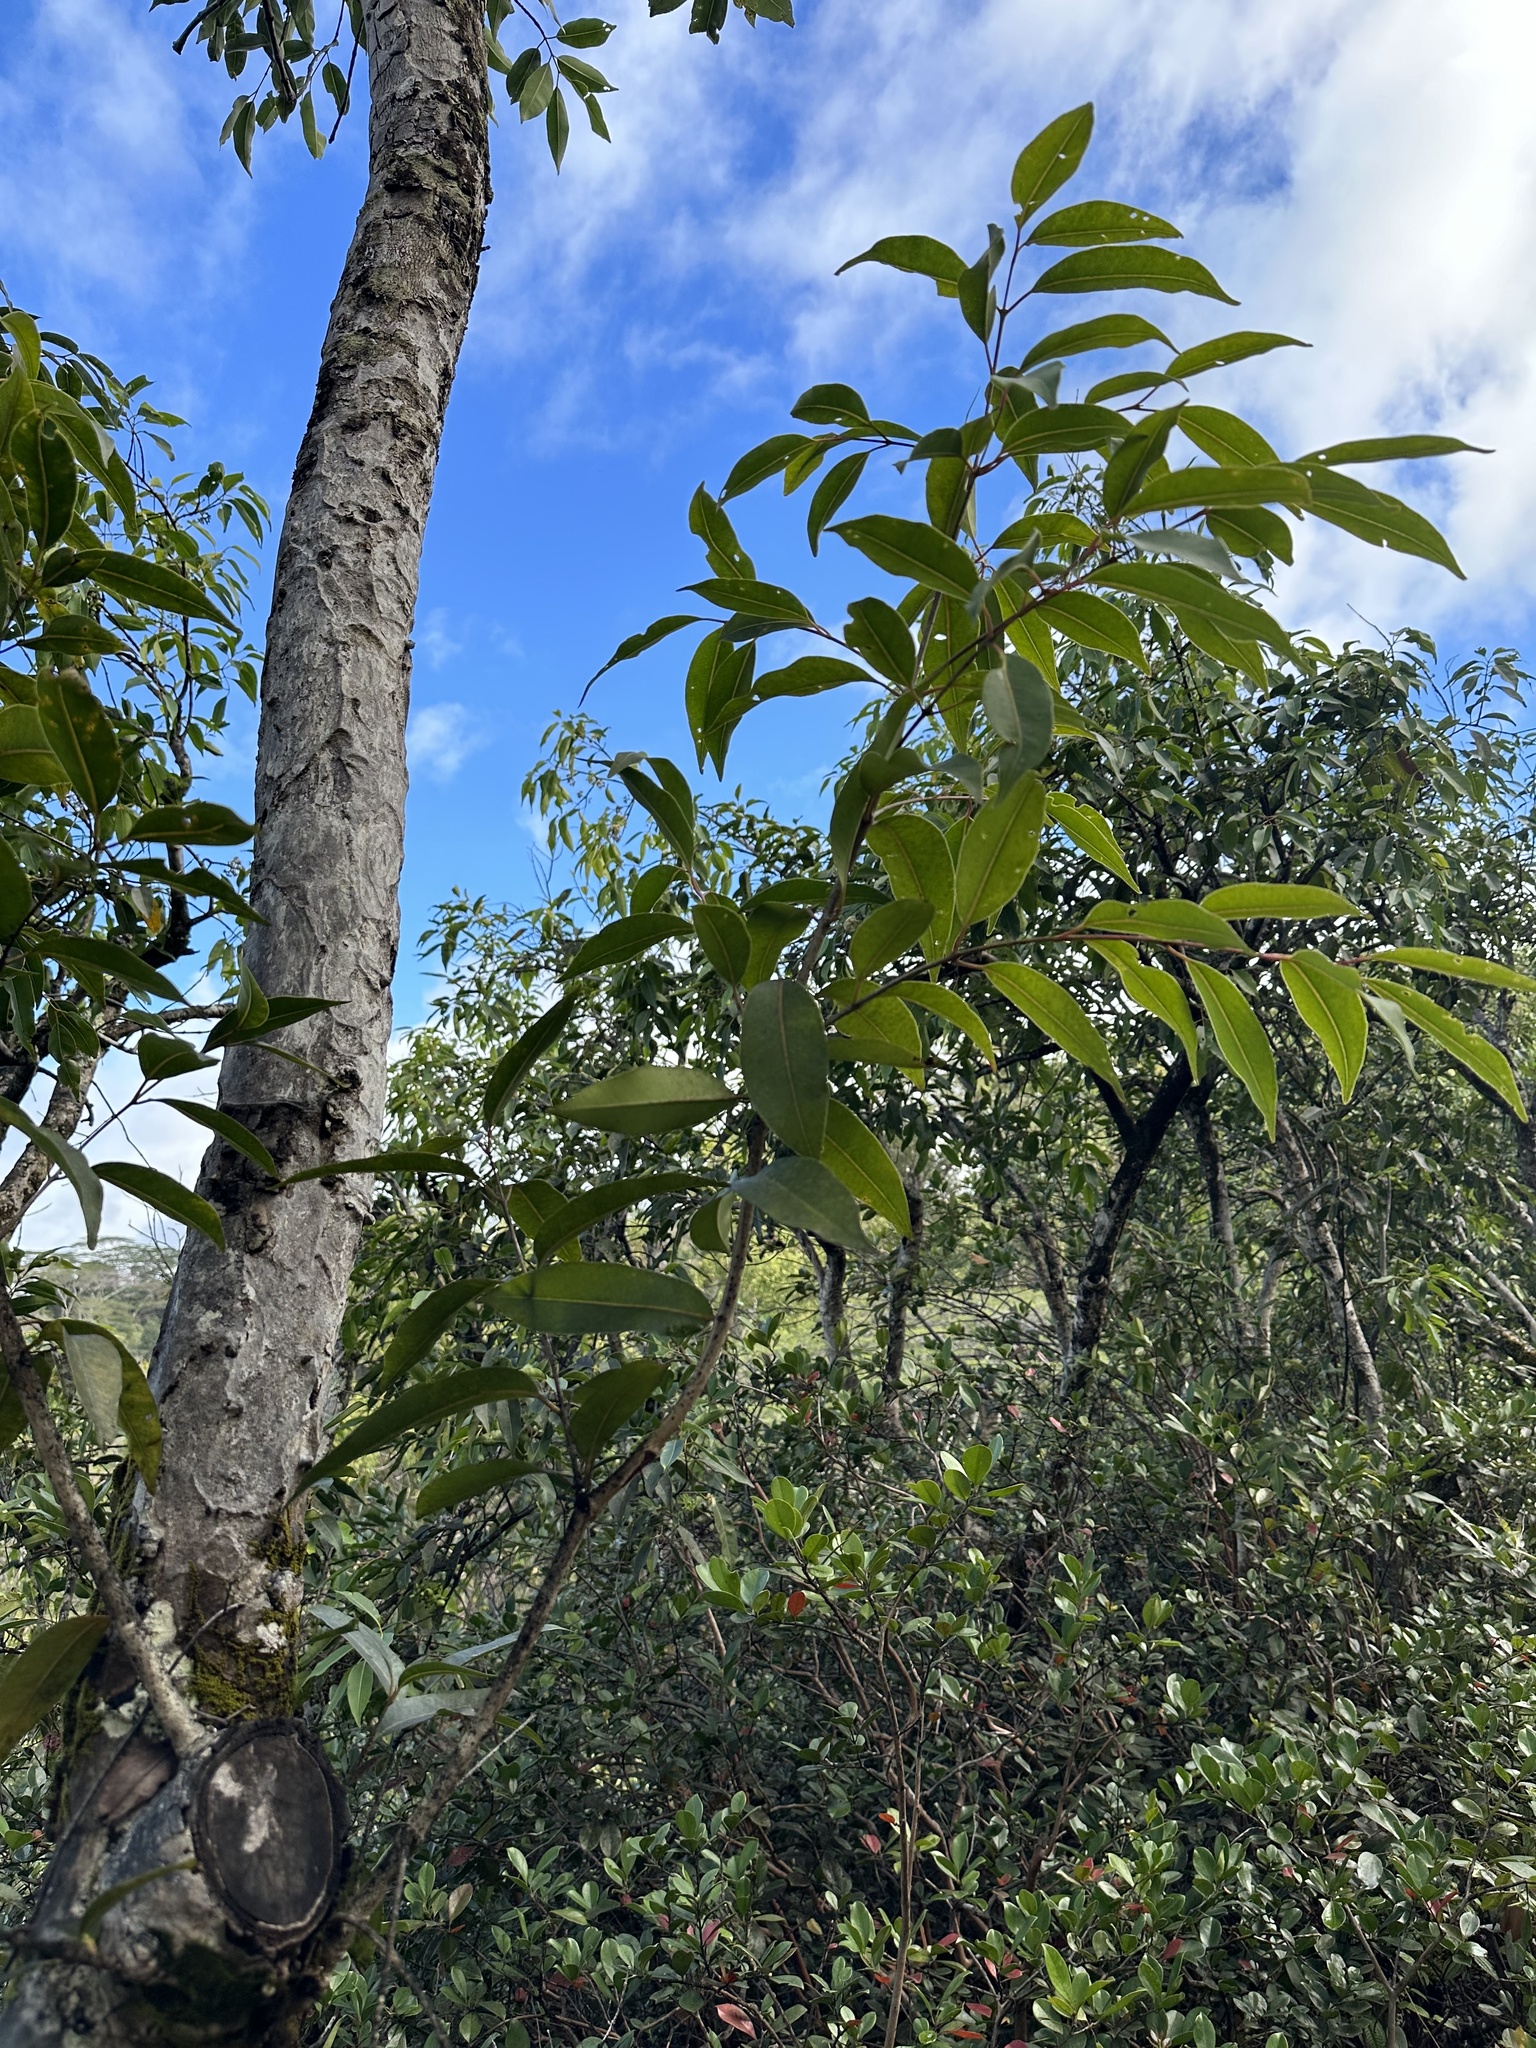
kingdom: Plantae
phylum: Tracheophyta
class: Magnoliopsida
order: Myrtales
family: Myrtaceae
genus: Syzygium
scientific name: Syzygium cumini
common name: Java plum
